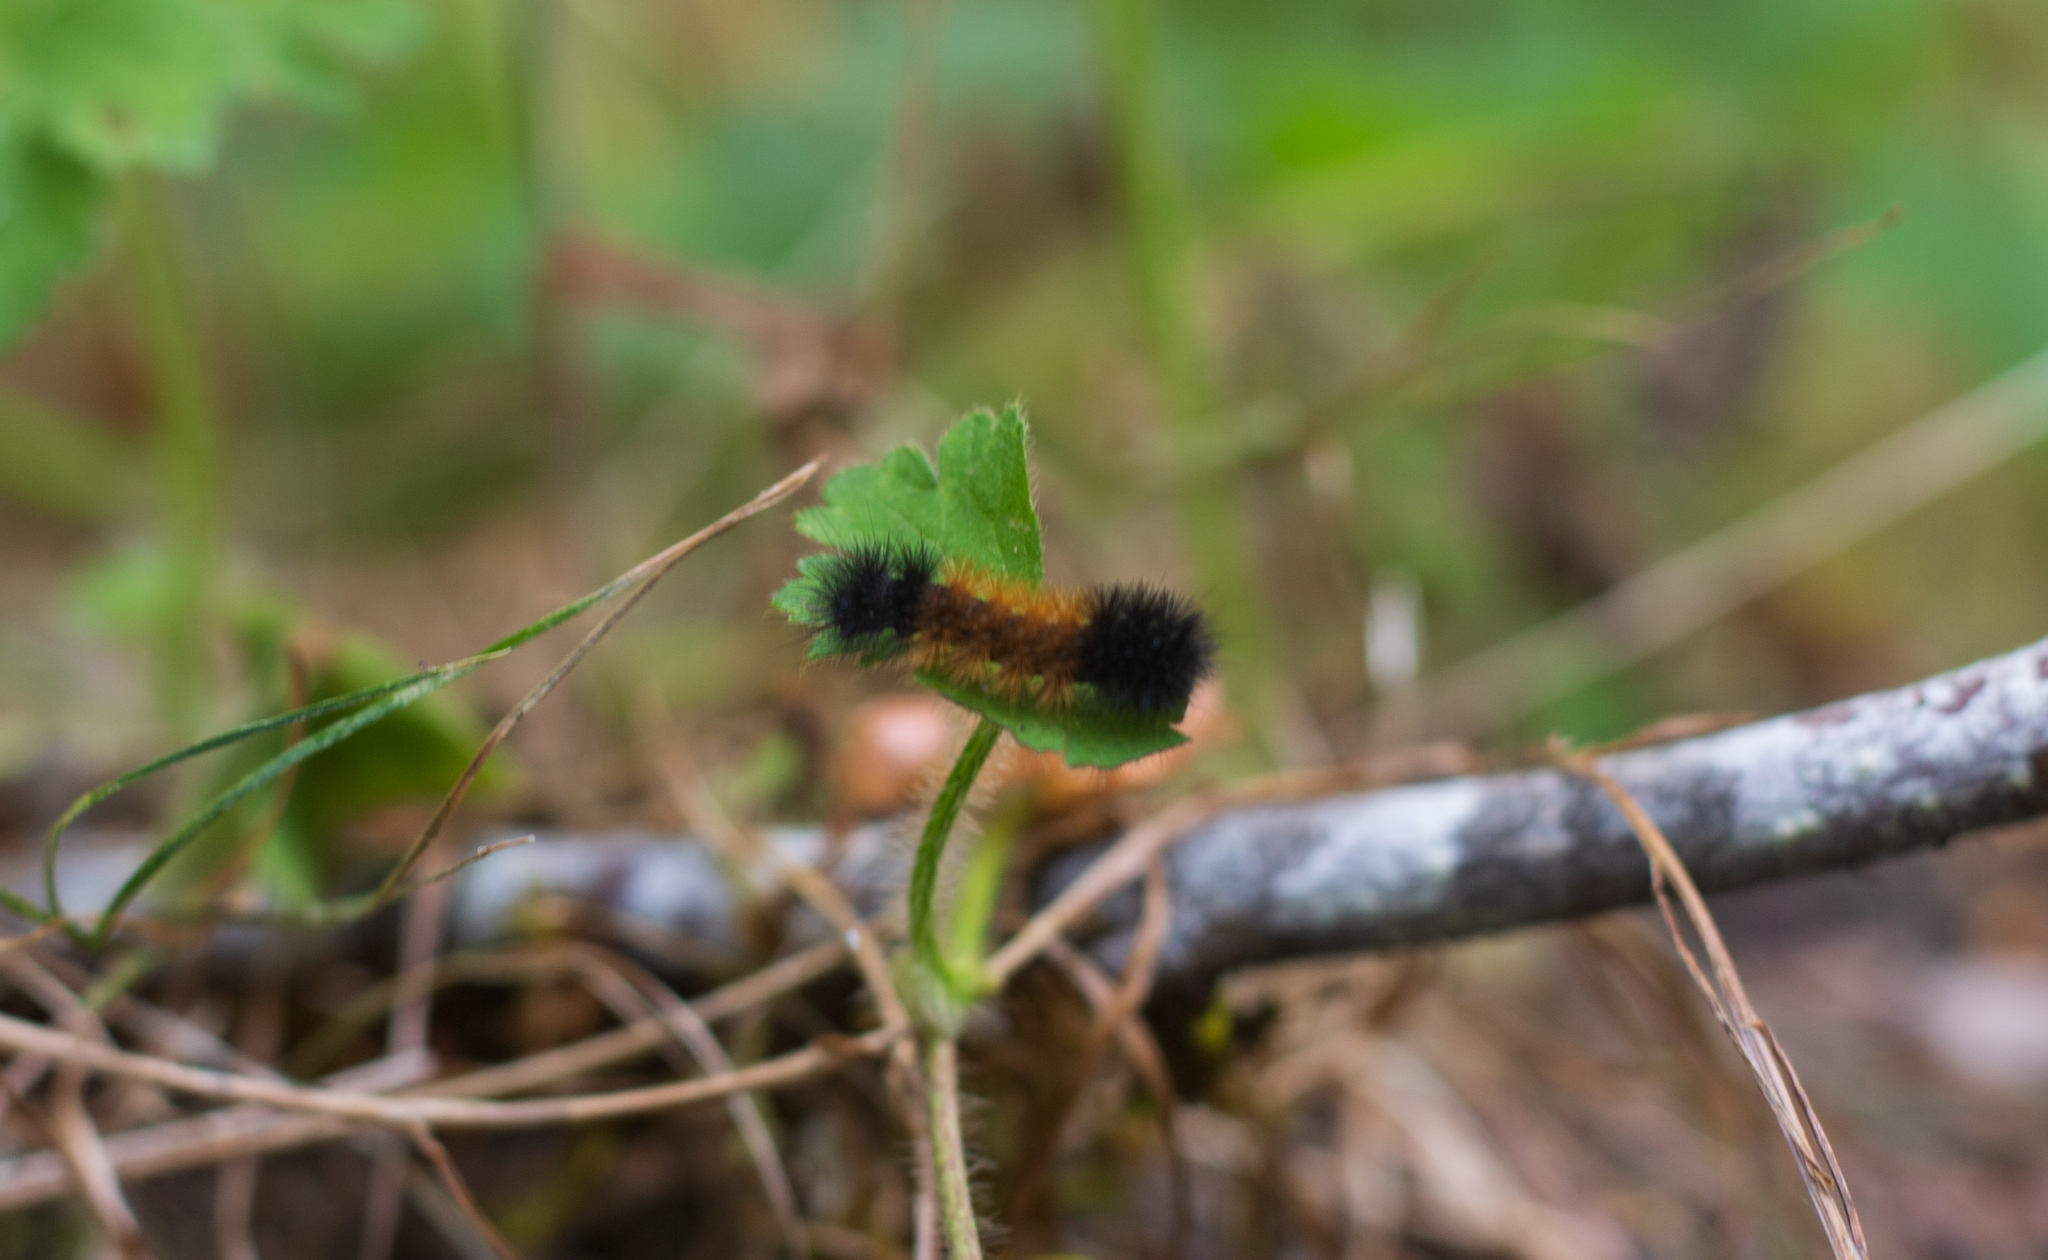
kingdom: Animalia
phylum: Arthropoda
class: Insecta
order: Lepidoptera
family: Erebidae
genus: Pyrrharctia
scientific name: Pyrrharctia isabella
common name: Isabella tiger moth
